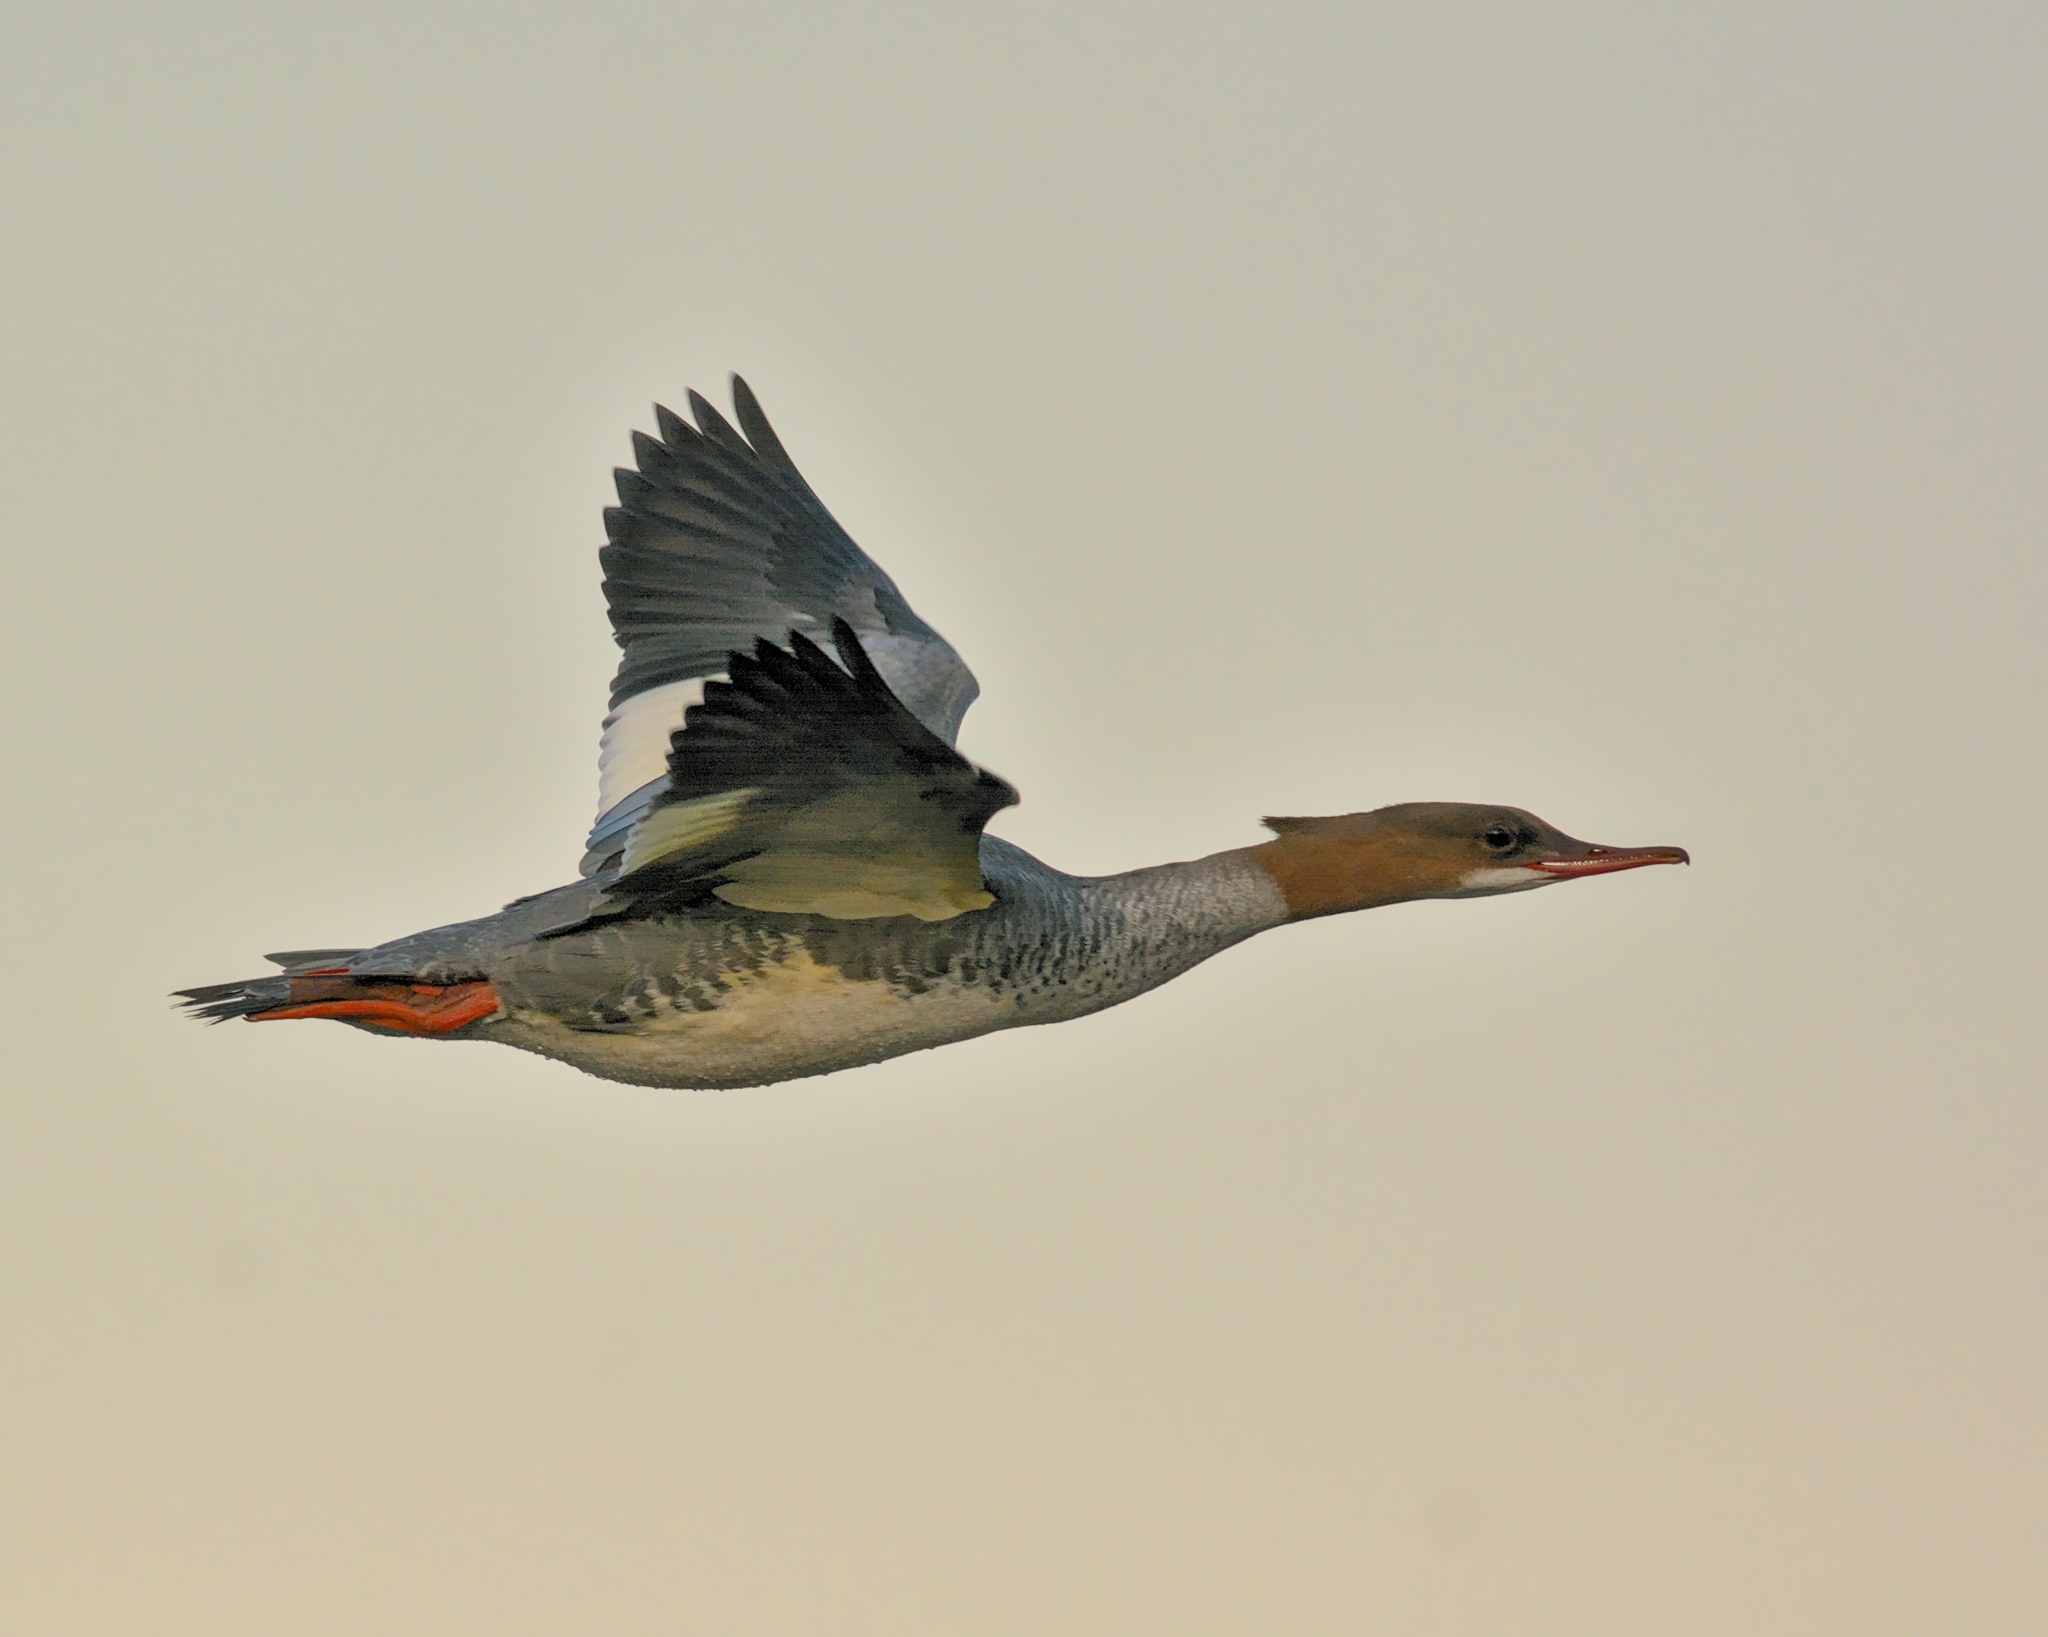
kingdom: Animalia
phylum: Chordata
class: Aves
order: Anseriformes
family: Anatidae
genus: Mergus
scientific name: Mergus merganser
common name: Common merganser
